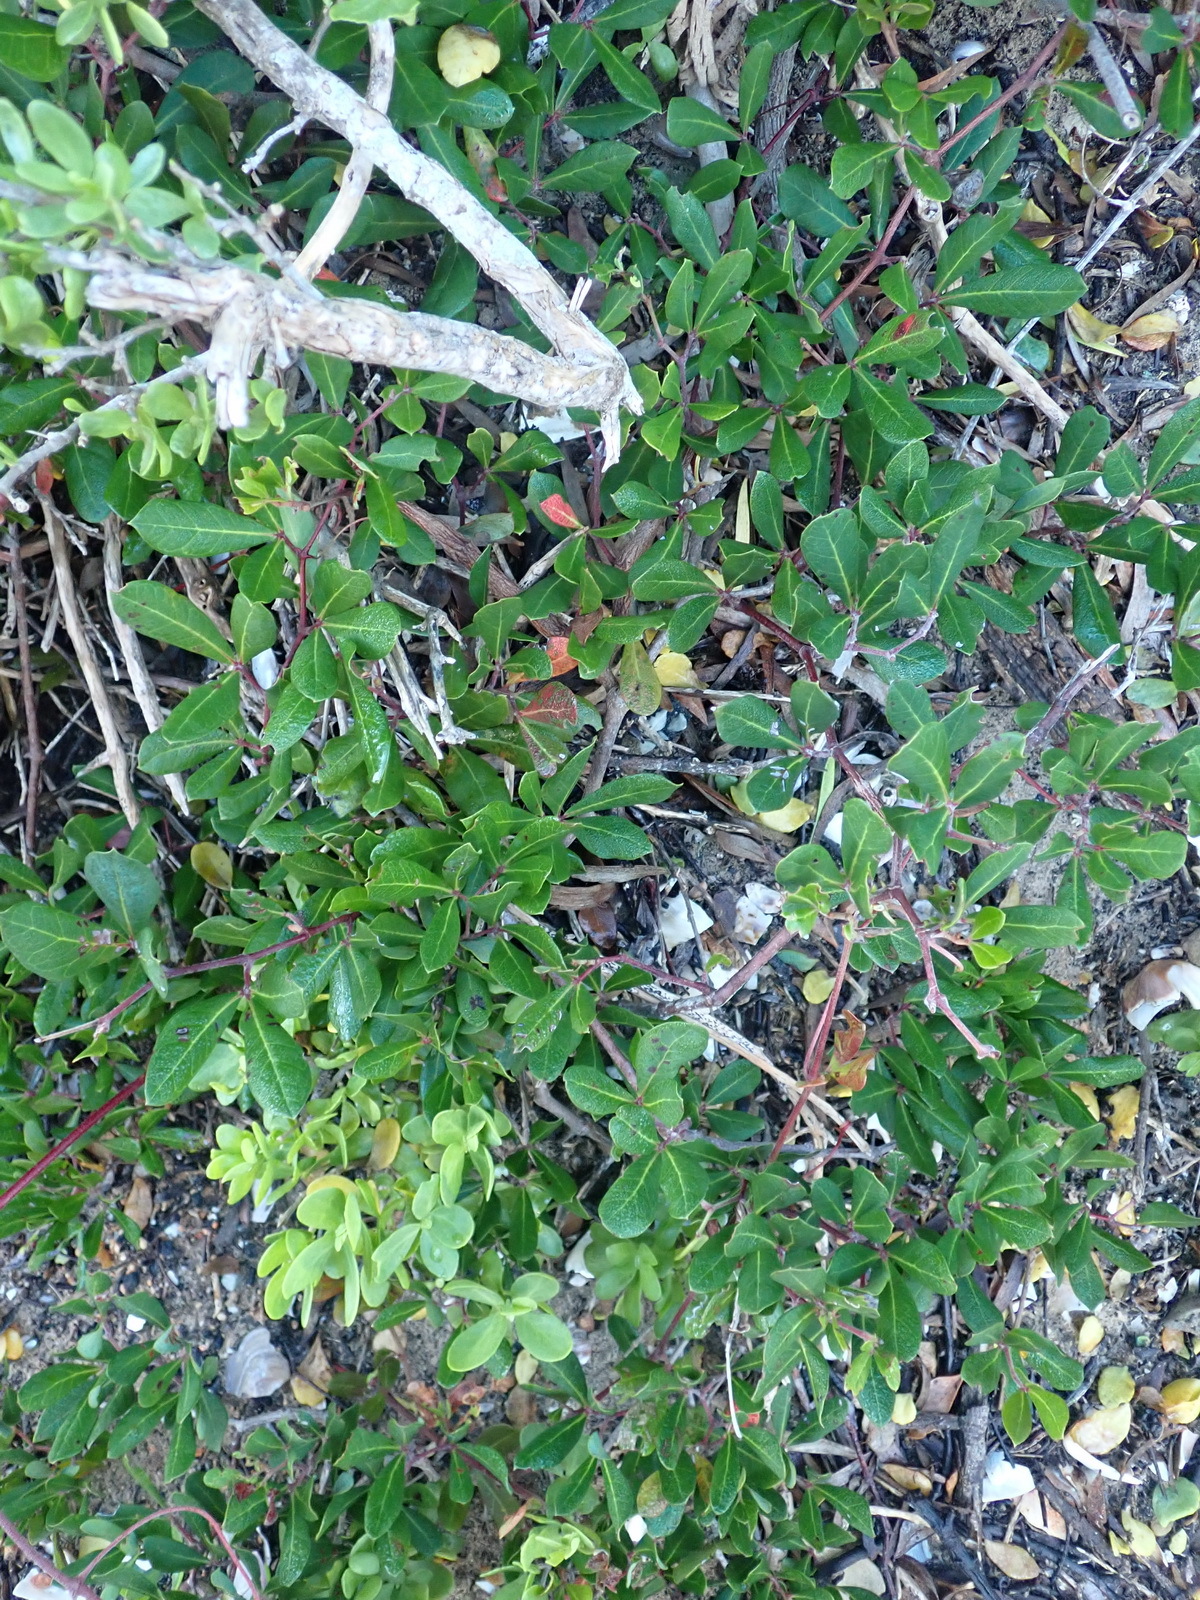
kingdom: Plantae
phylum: Tracheophyta
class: Magnoliopsida
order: Vitales
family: Vitaceae
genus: Rhoicissus
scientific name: Rhoicissus digitata
